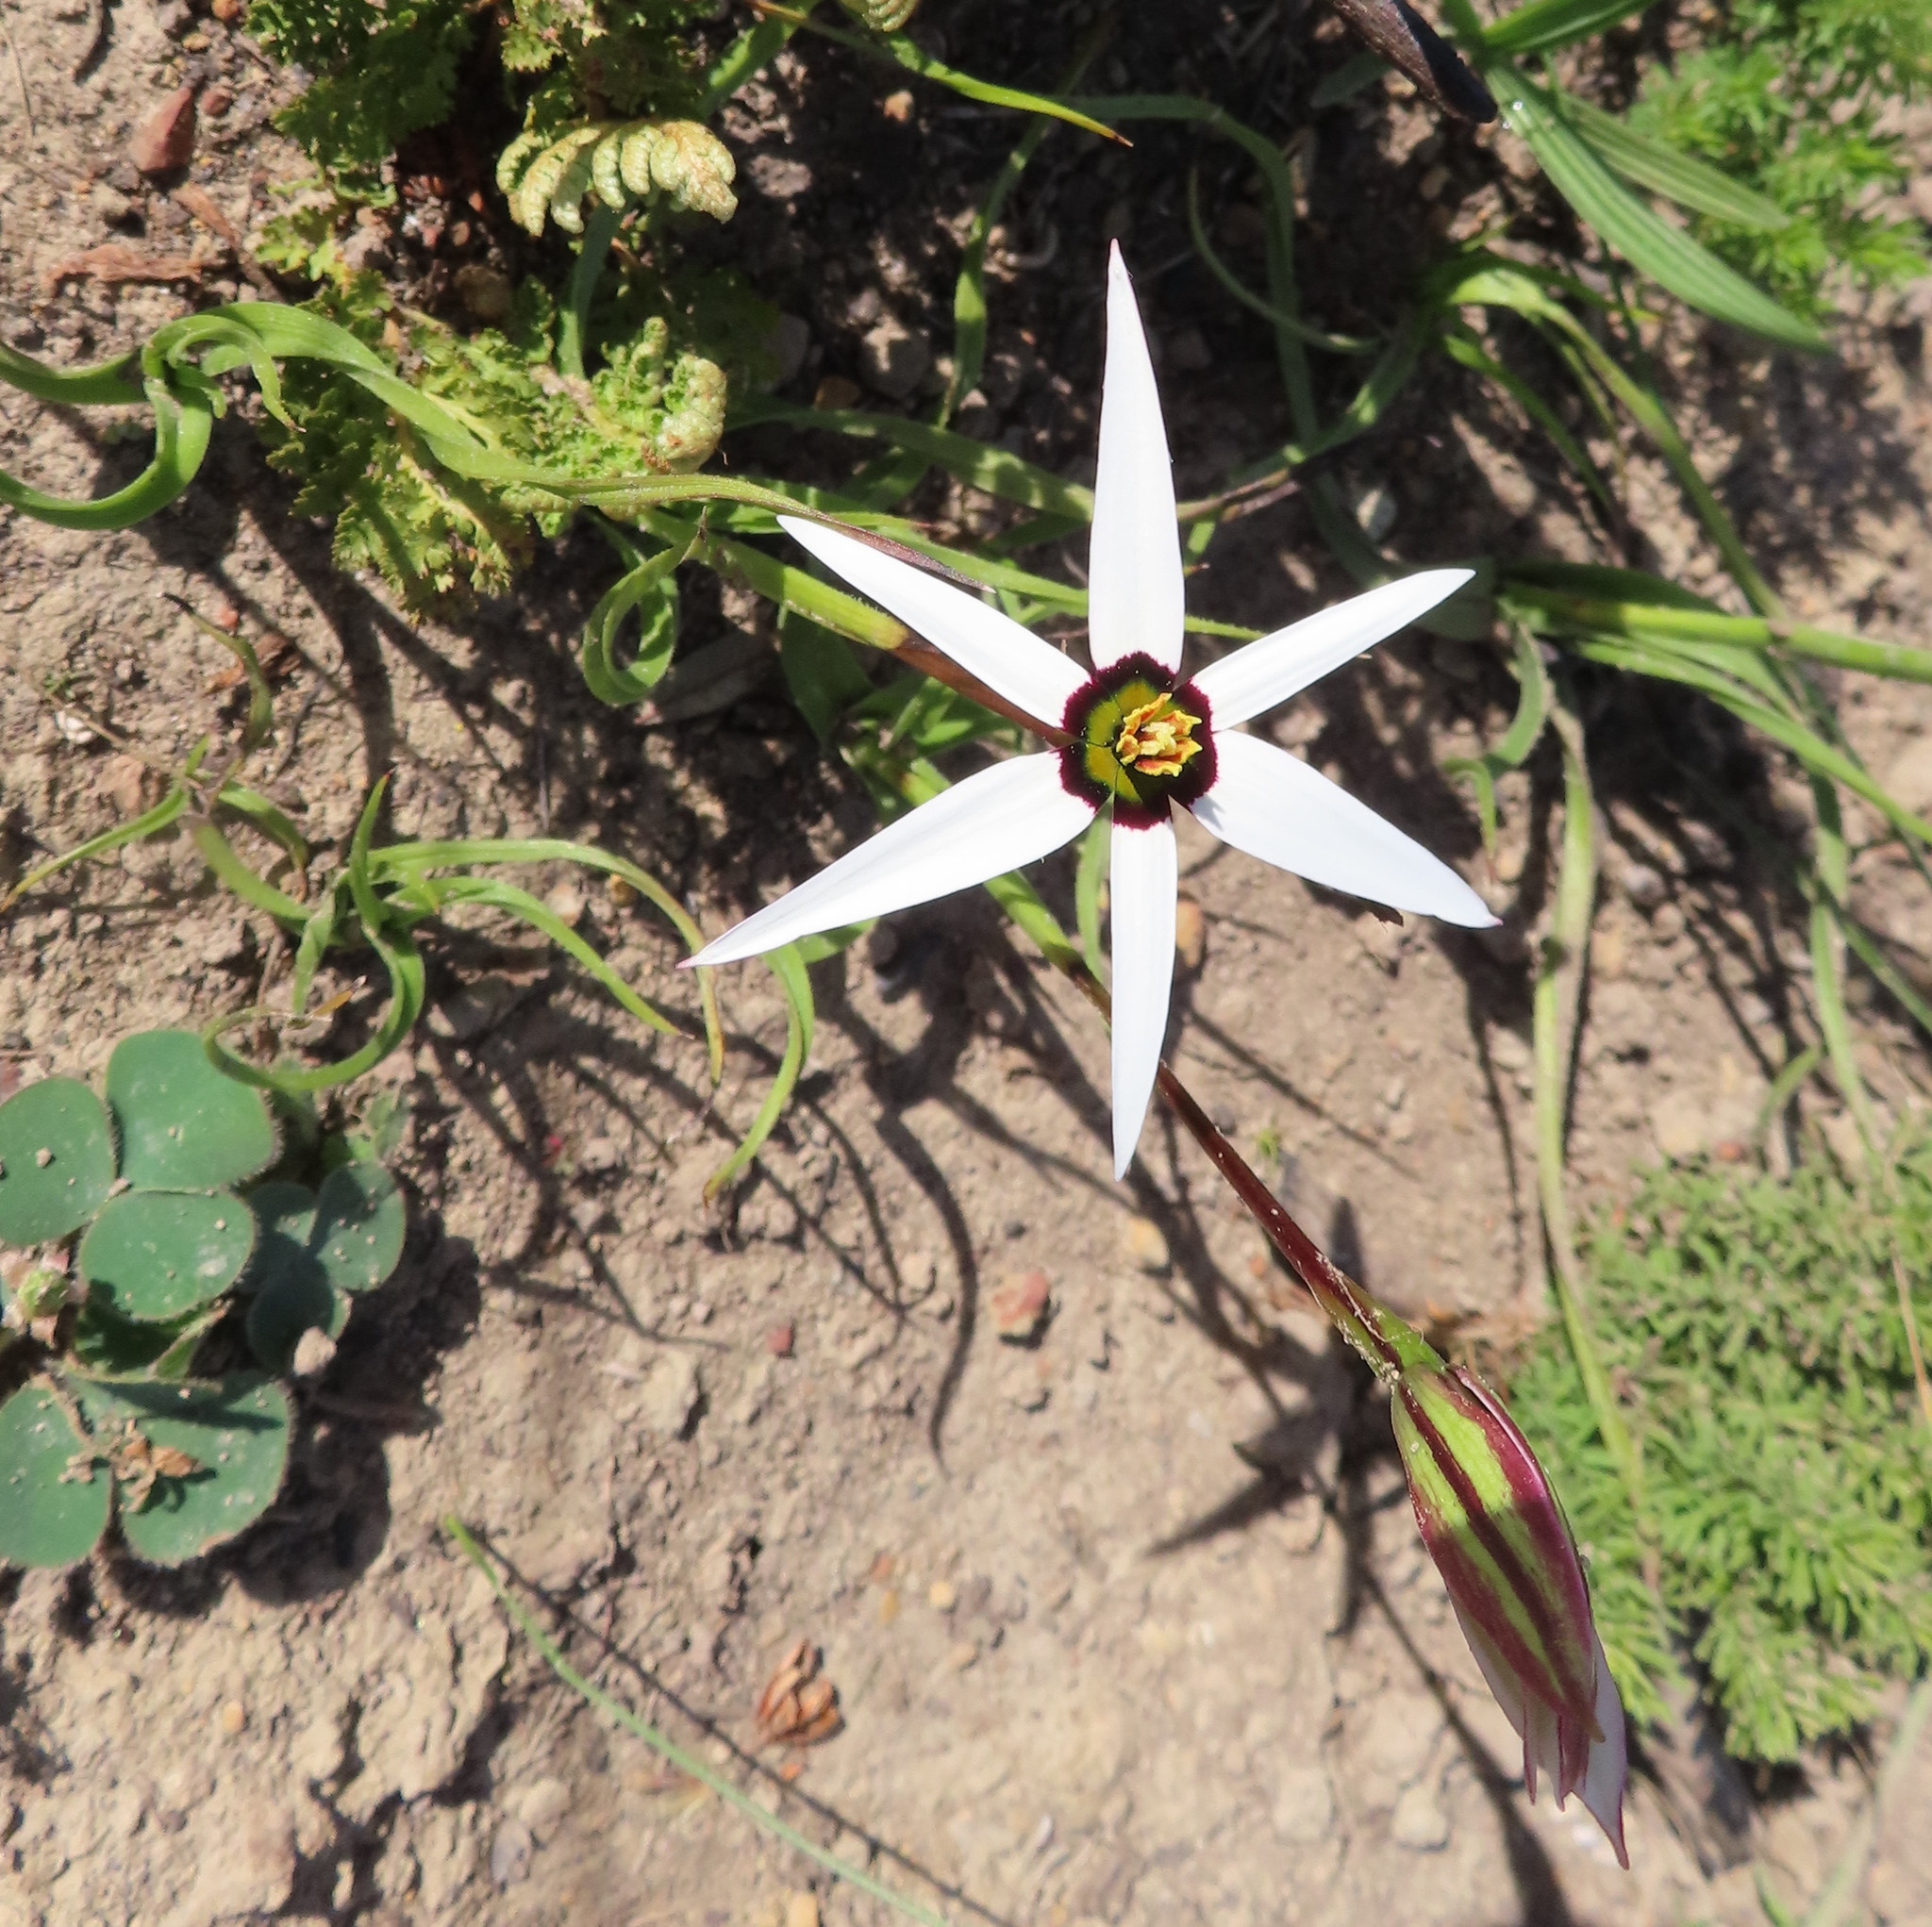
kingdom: Plantae
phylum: Tracheophyta
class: Liliopsida
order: Asparagales
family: Hypoxidaceae
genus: Pauridia
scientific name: Pauridia capensis
